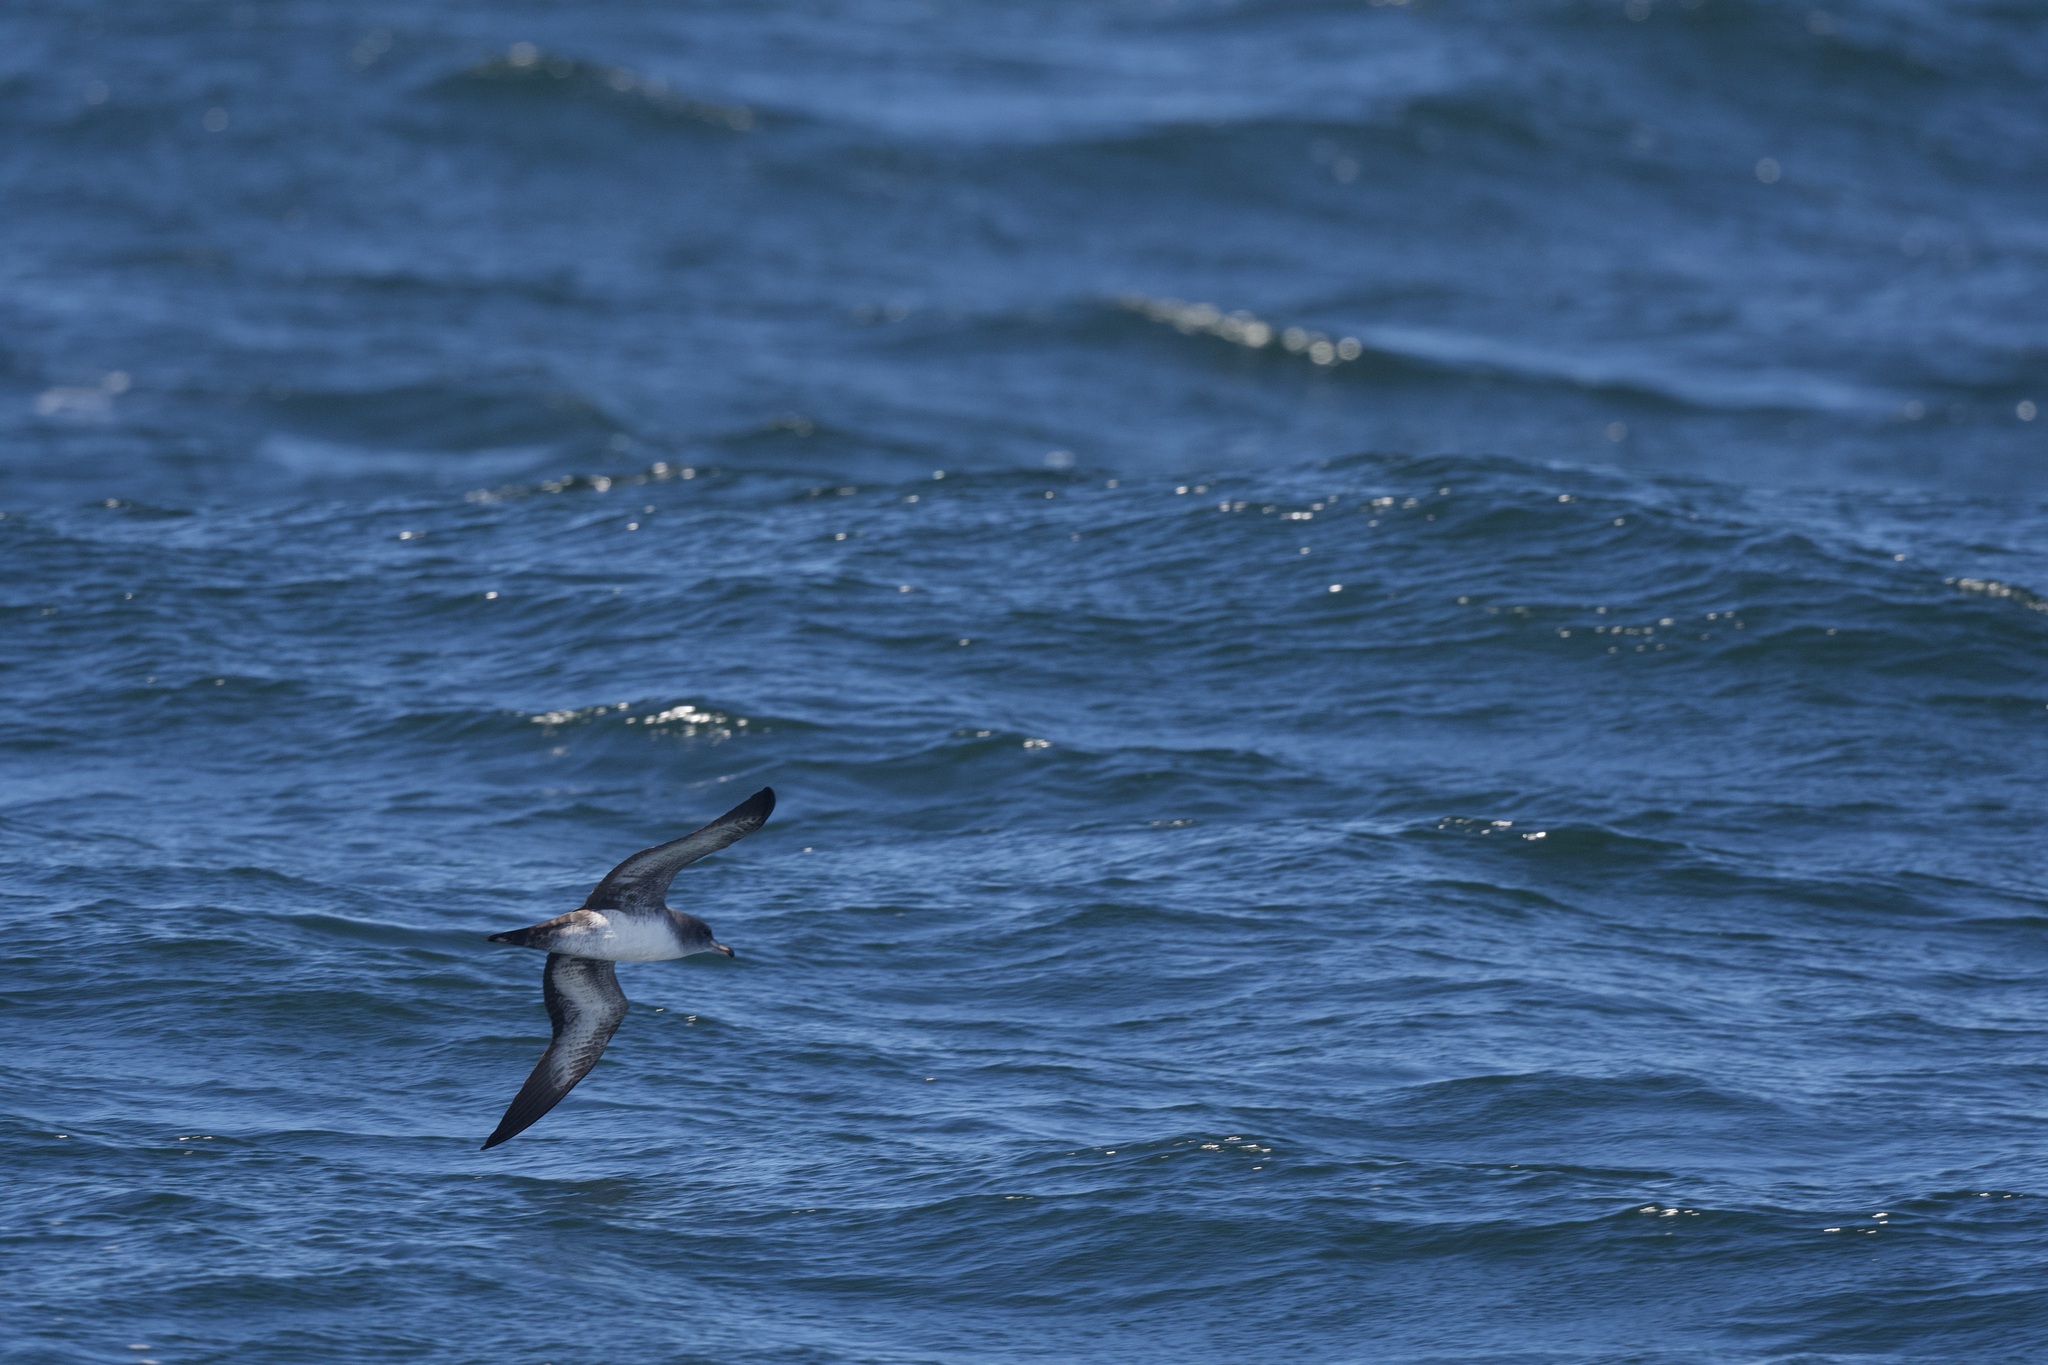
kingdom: Animalia
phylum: Chordata
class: Aves
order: Procellariiformes
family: Procellariidae
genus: Puffinus
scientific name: Puffinus creatopus
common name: Pink-footed shearwater
